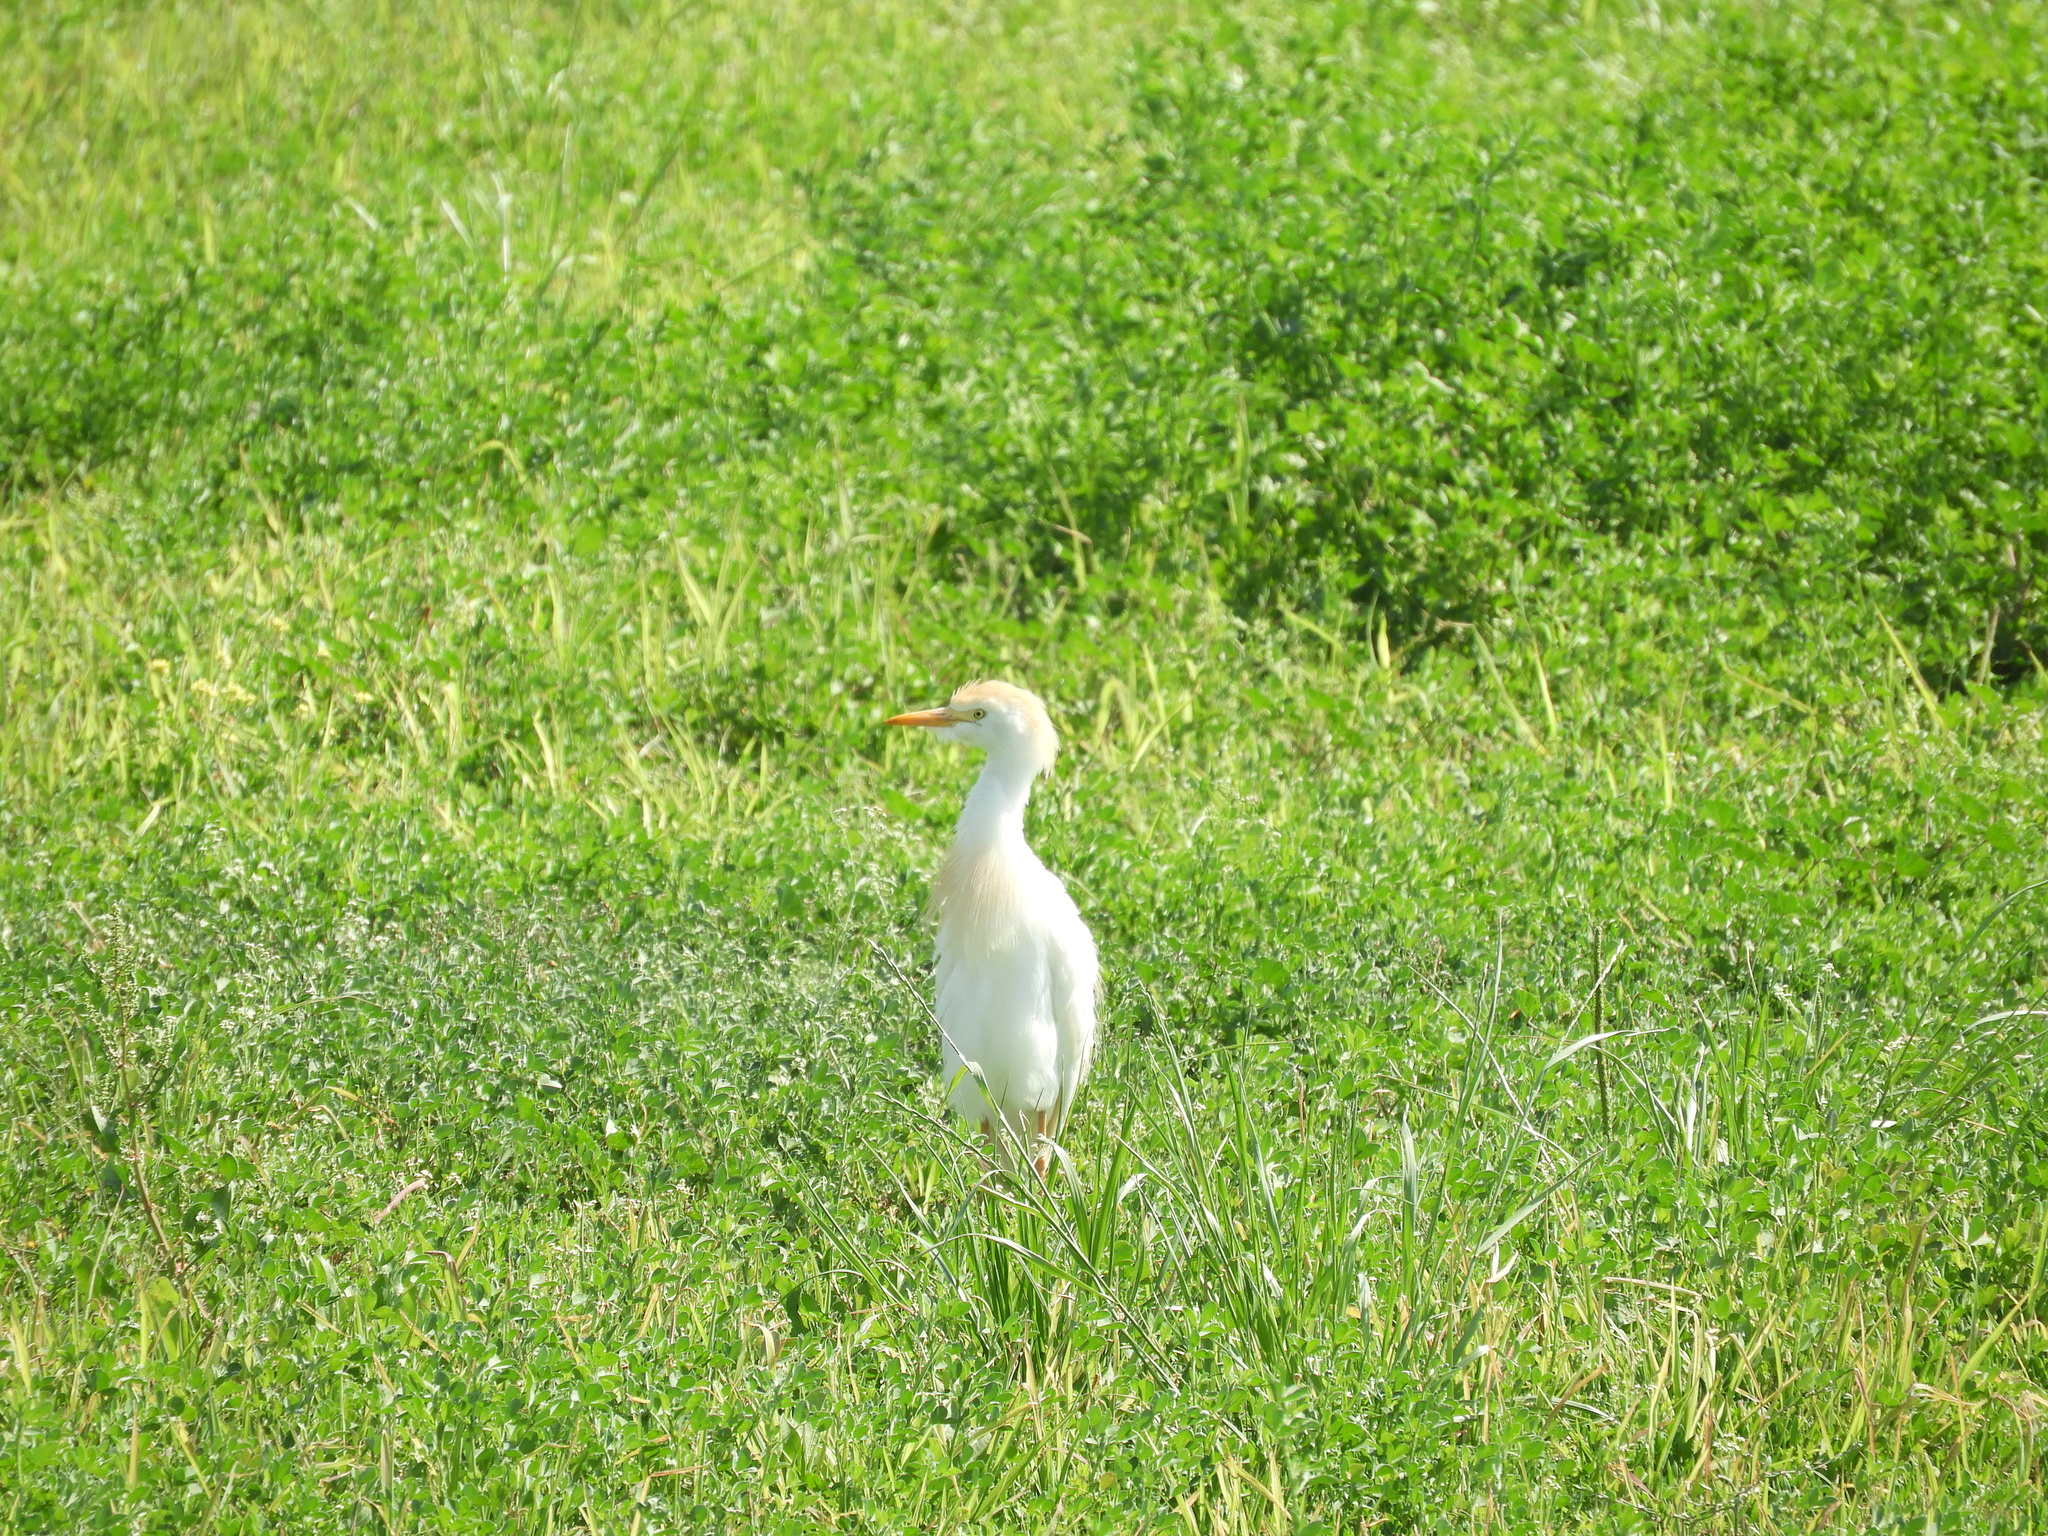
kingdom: Animalia
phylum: Chordata
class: Aves
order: Pelecaniformes
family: Ardeidae
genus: Bubulcus
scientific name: Bubulcus ibis
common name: Cattle egret
